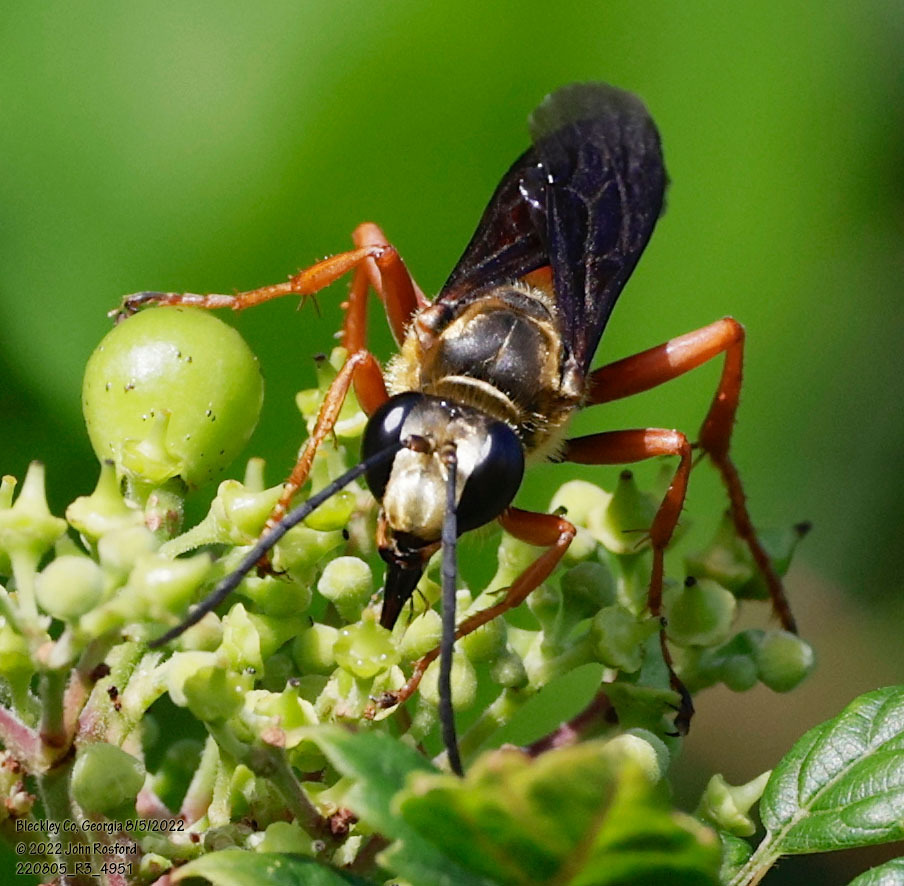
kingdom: Animalia
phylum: Arthropoda
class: Insecta
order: Hymenoptera
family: Sphecidae
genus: Sphex
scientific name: Sphex ichneumoneus
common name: Great golden digger wasp
